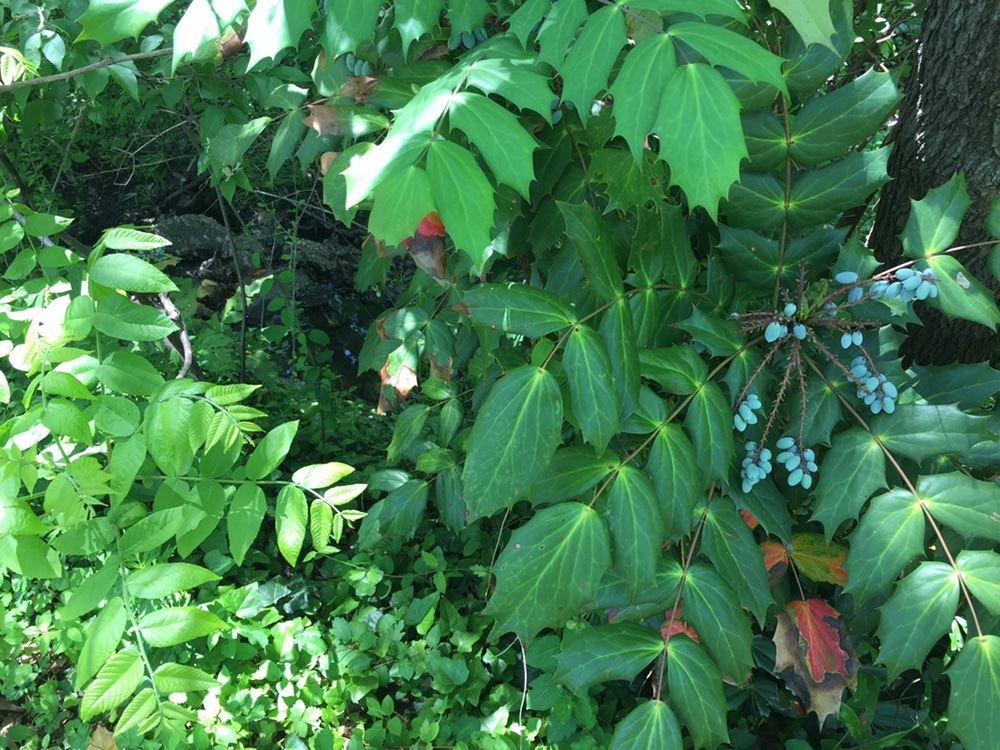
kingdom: Plantae
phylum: Tracheophyta
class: Magnoliopsida
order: Ranunculales
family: Berberidaceae
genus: Mahonia
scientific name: Mahonia bealei
